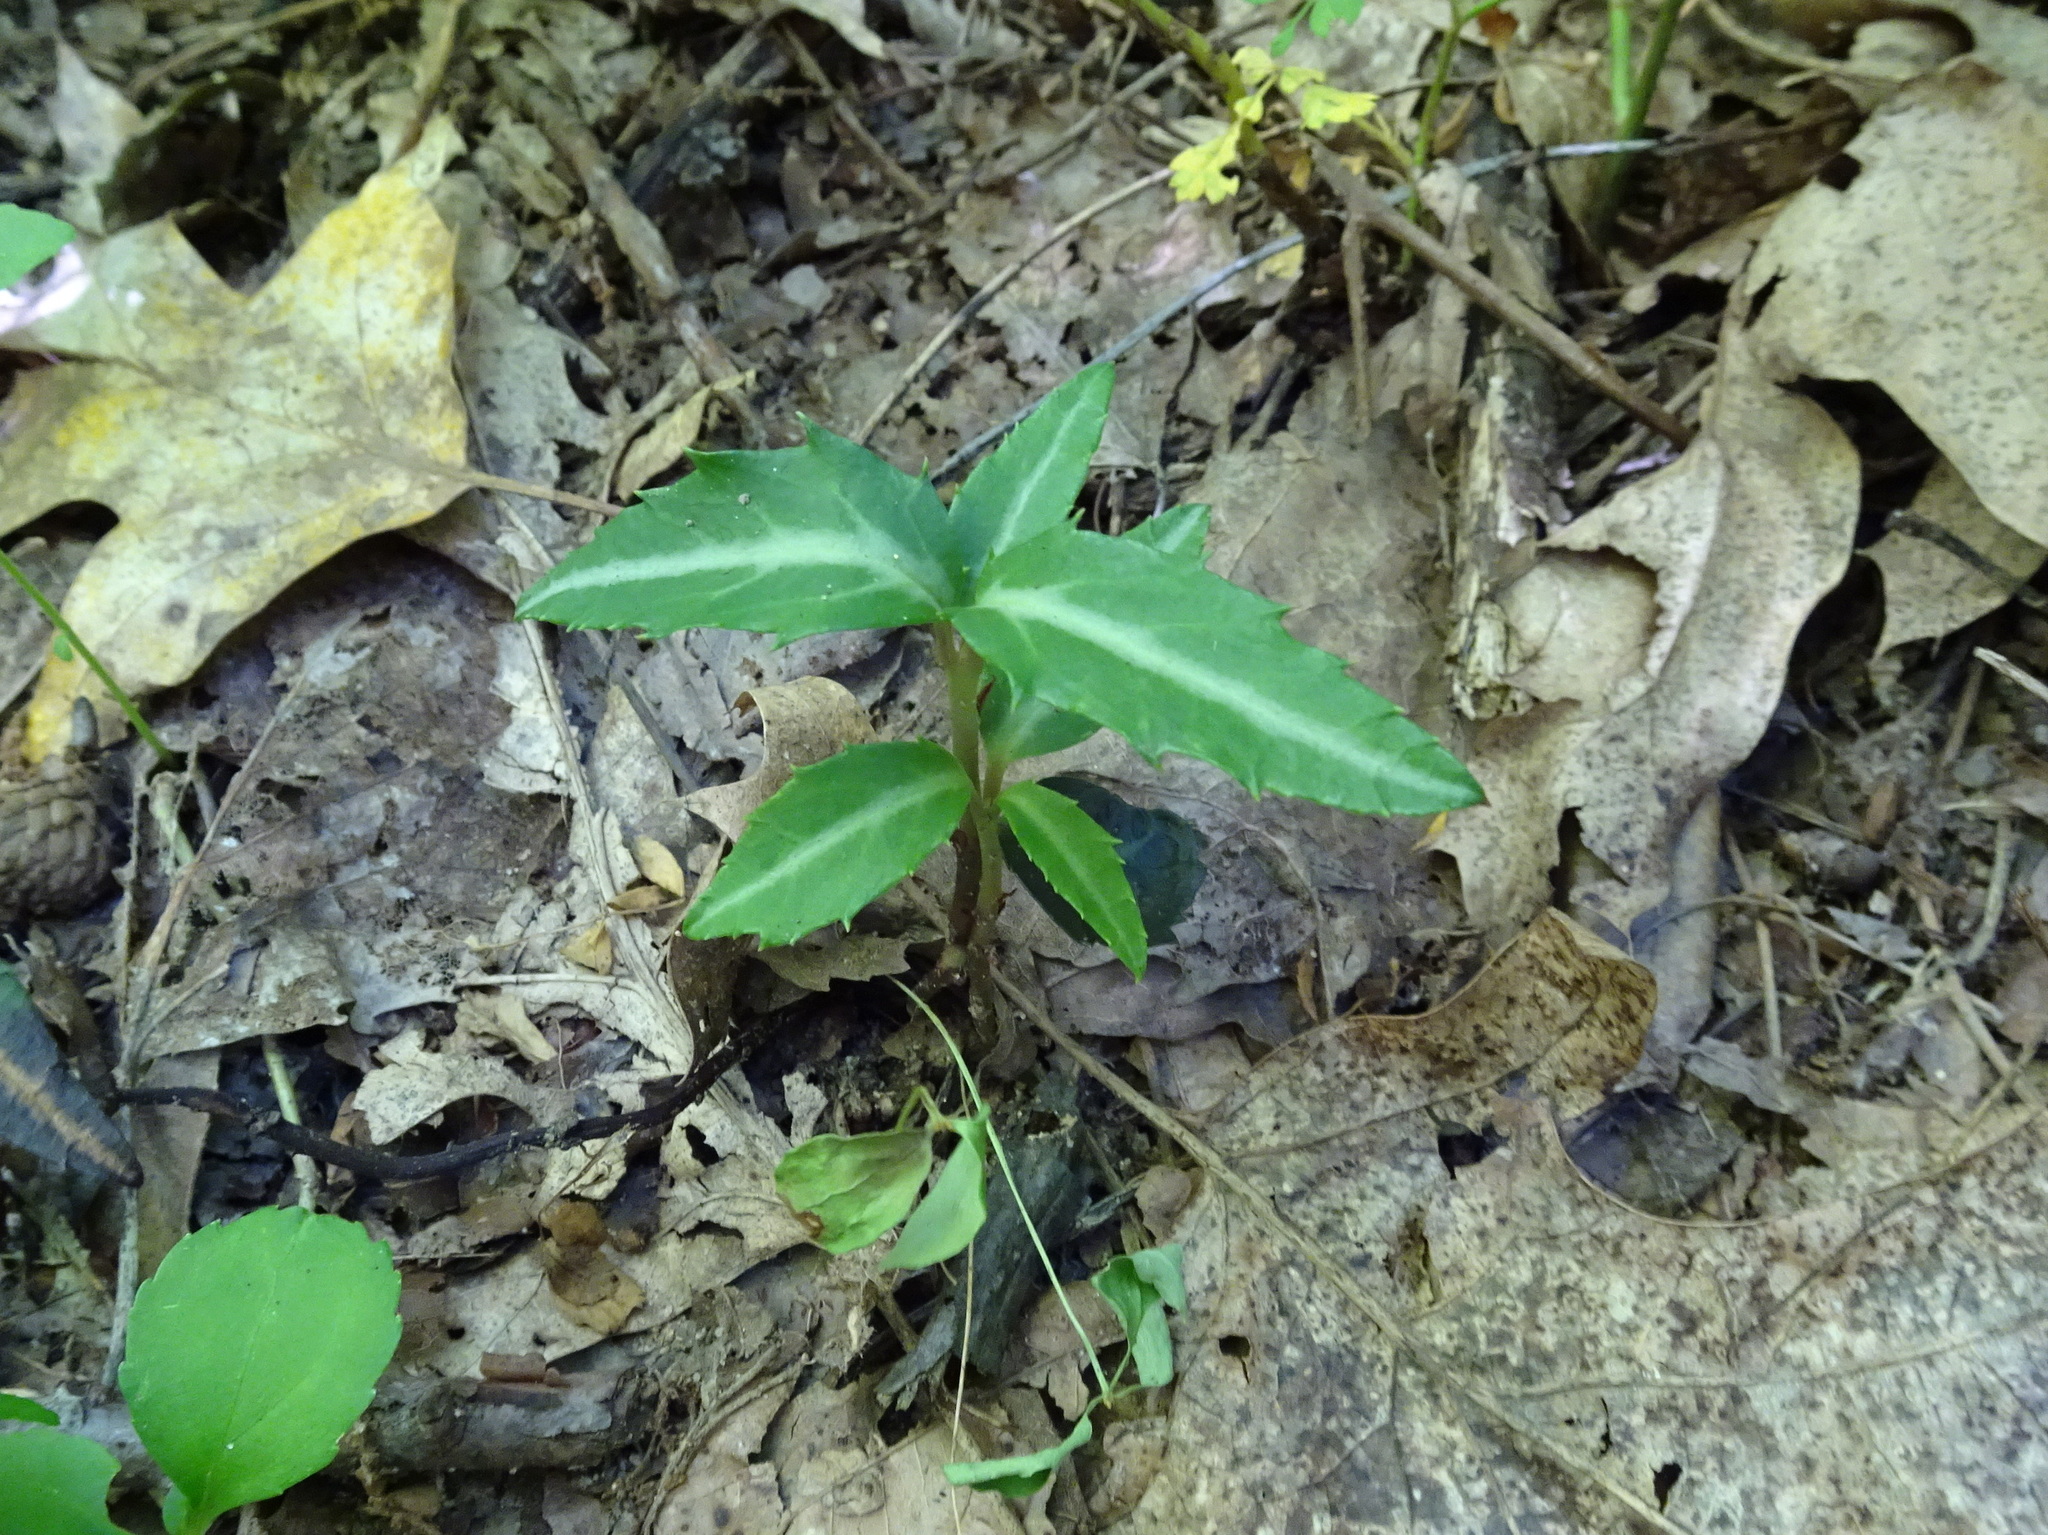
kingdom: Plantae
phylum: Tracheophyta
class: Magnoliopsida
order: Ericales
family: Ericaceae
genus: Chimaphila
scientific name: Chimaphila maculata
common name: Spotted pipsissewa
